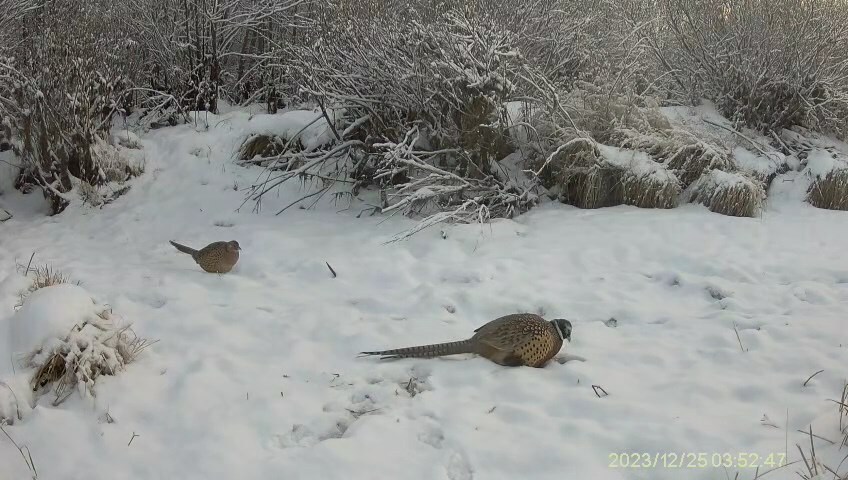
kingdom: Animalia
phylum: Chordata
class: Aves
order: Galliformes
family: Phasianidae
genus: Phasianus
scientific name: Phasianus colchicus
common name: Common pheasant
